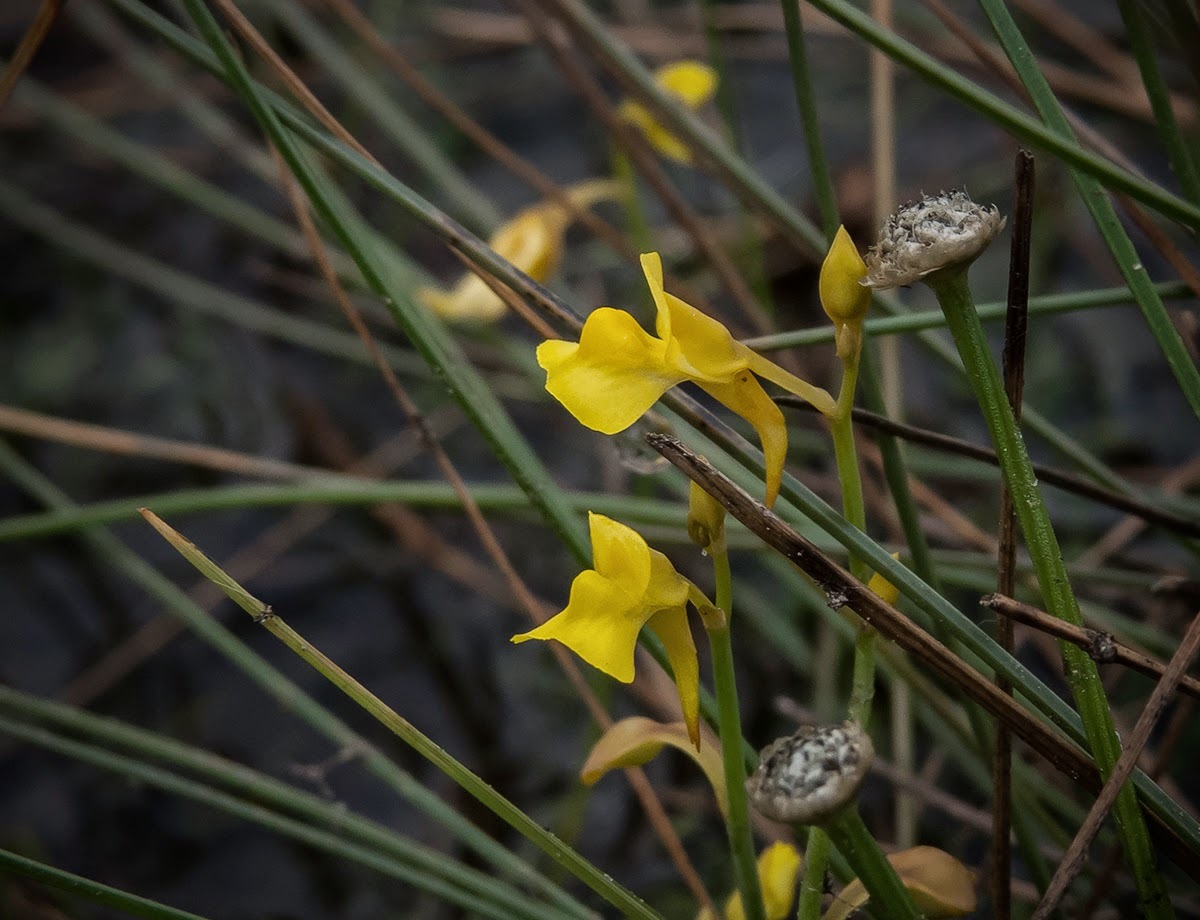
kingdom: Plantae
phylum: Tracheophyta
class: Magnoliopsida
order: Lamiales
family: Lentibulariaceae
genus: Utricularia
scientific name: Utricularia bifida
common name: Bifid bladderwort
